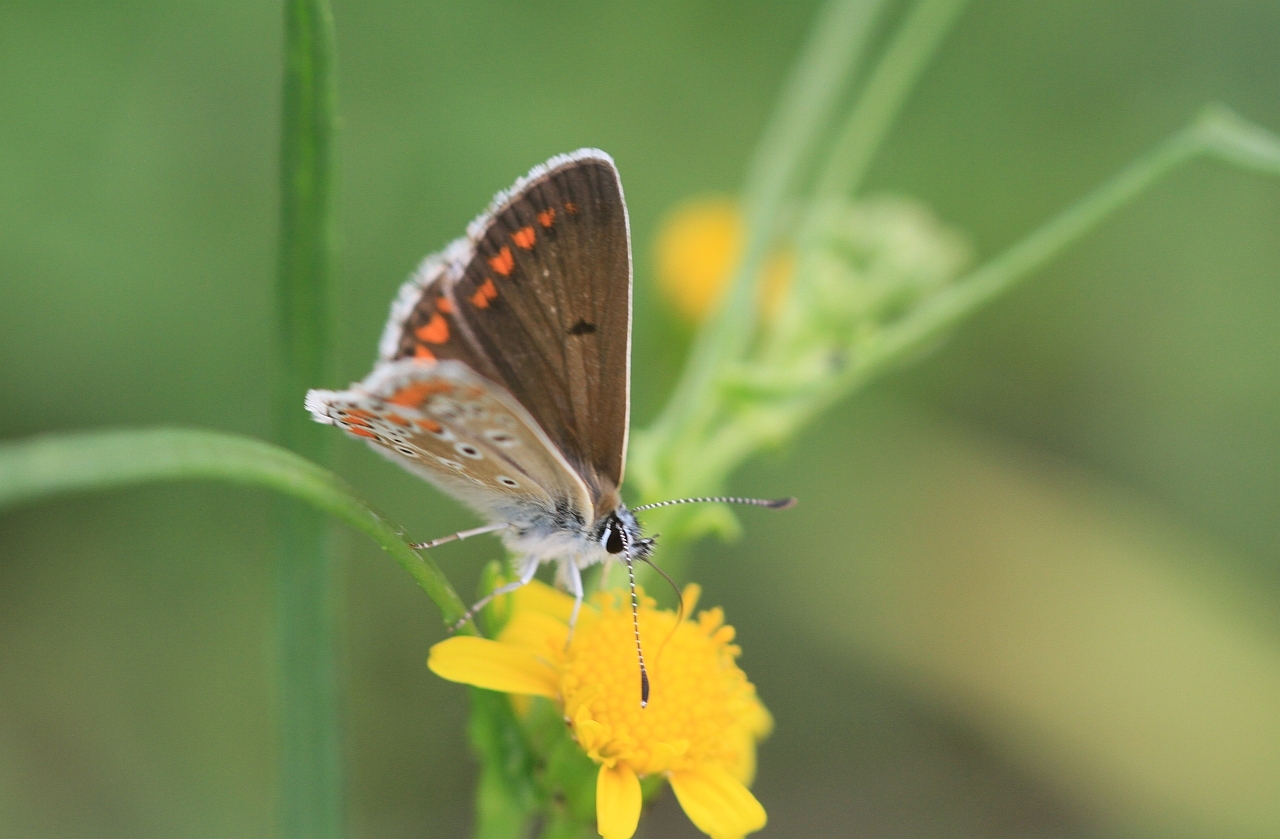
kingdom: Animalia
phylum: Arthropoda
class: Insecta
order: Lepidoptera
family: Lycaenidae
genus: Aricia
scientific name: Aricia agestis
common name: Brown argus
